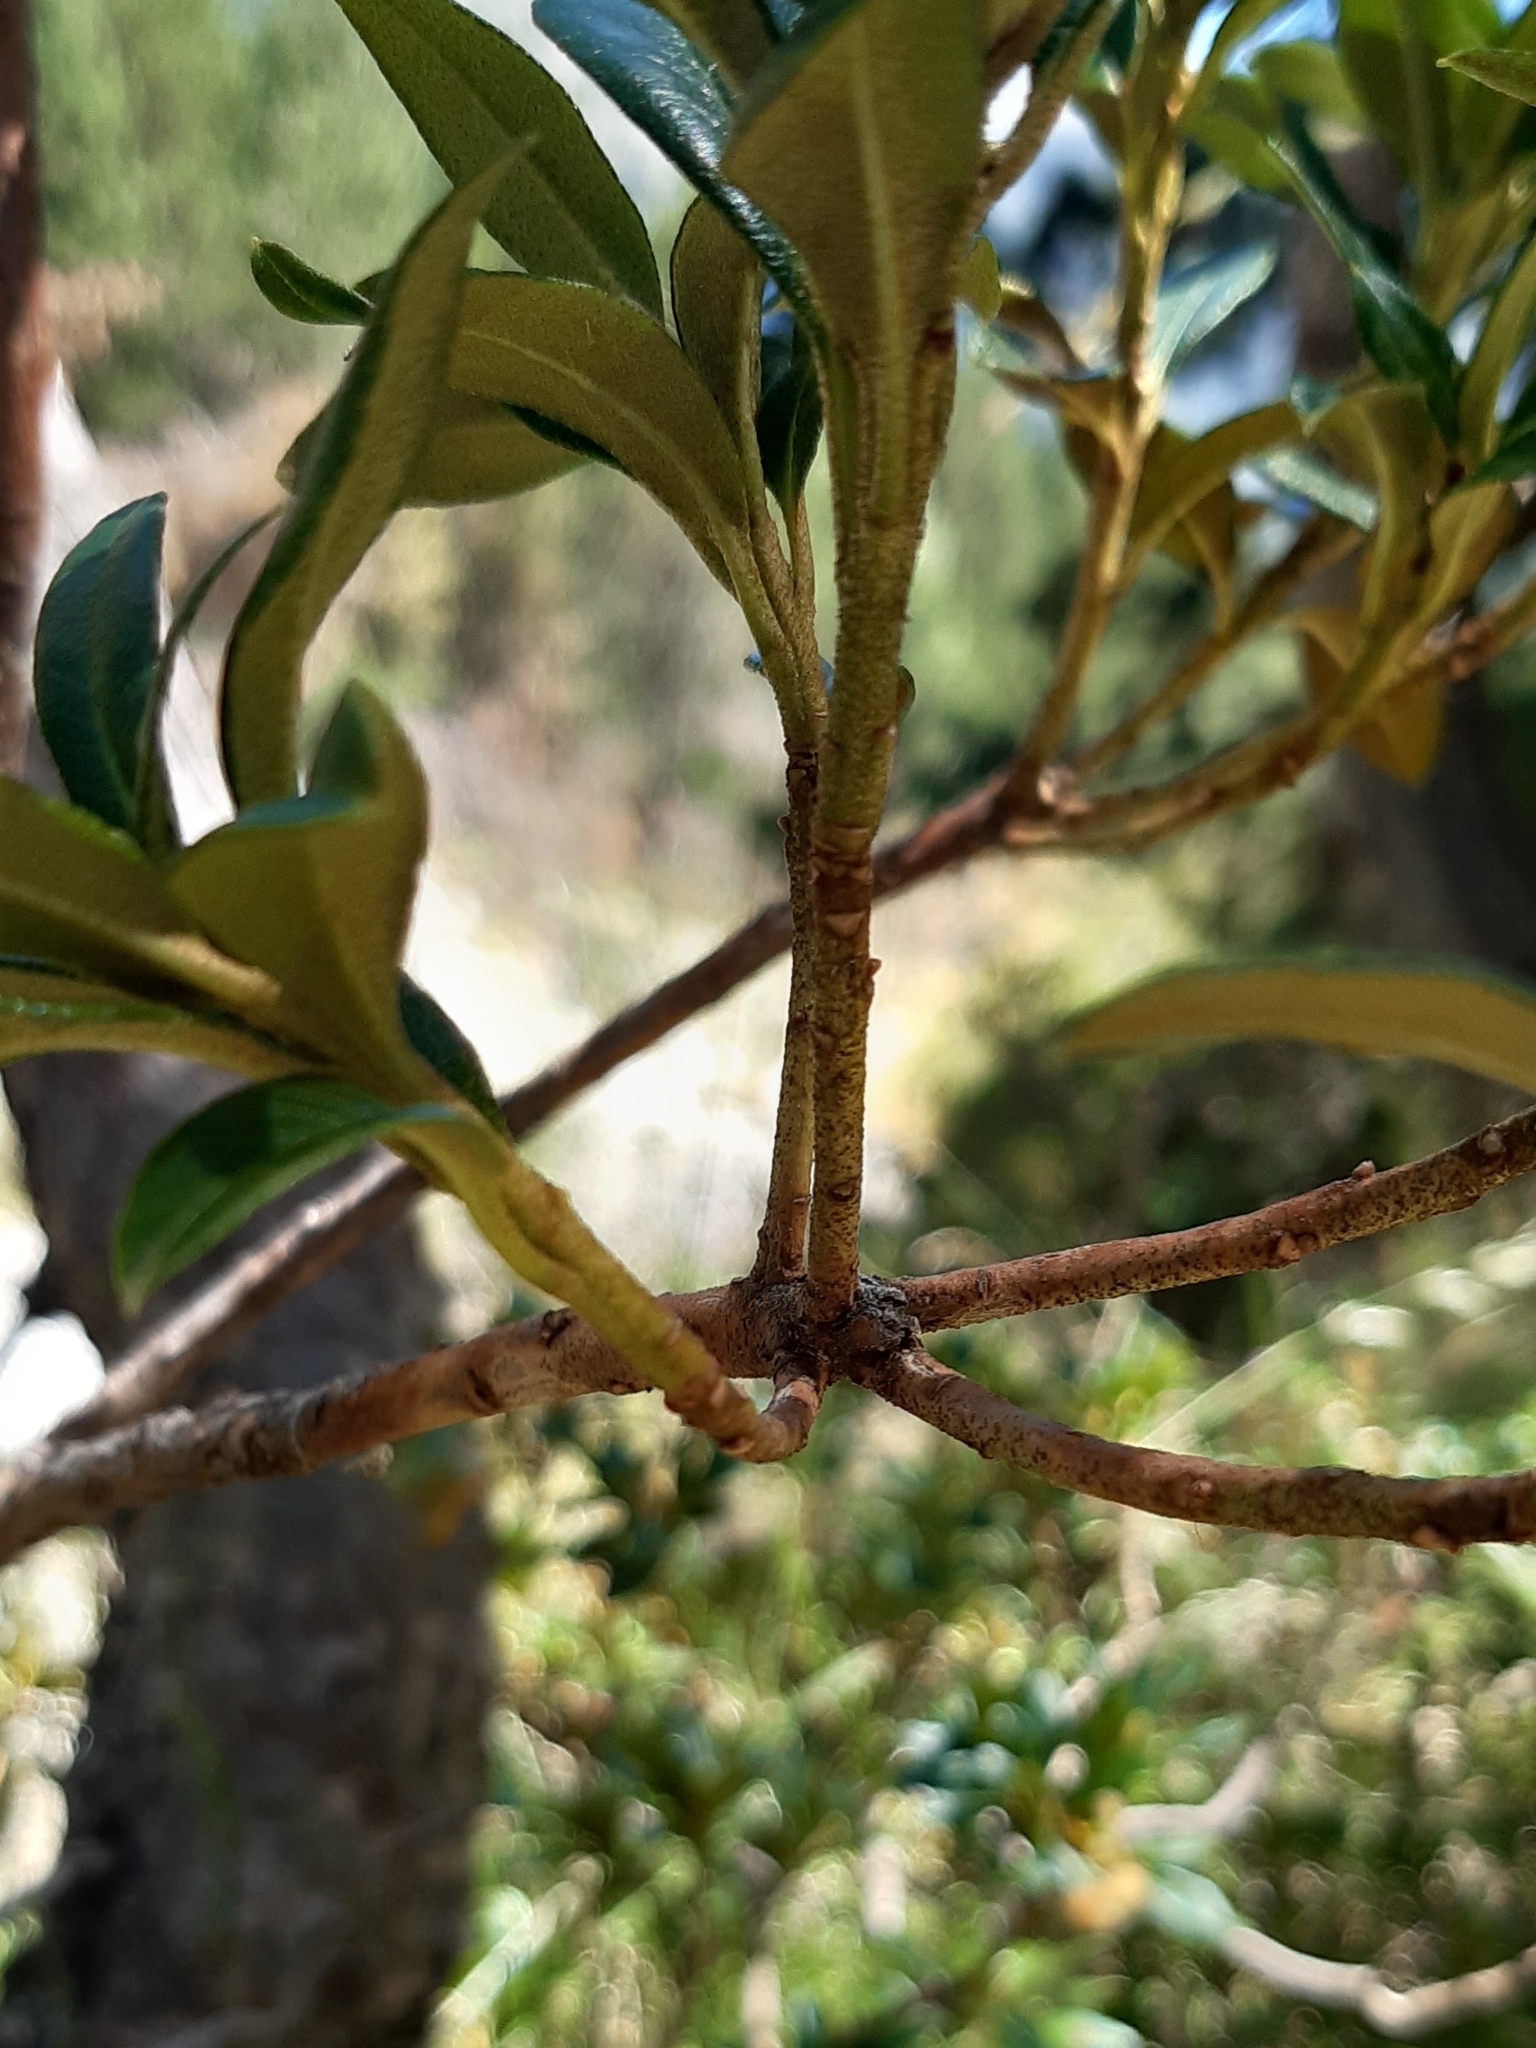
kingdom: Plantae
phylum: Tracheophyta
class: Magnoliopsida
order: Ericales
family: Ericaceae
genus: Rhododendron
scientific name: Rhododendron ferrugineum
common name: Alpenrose
